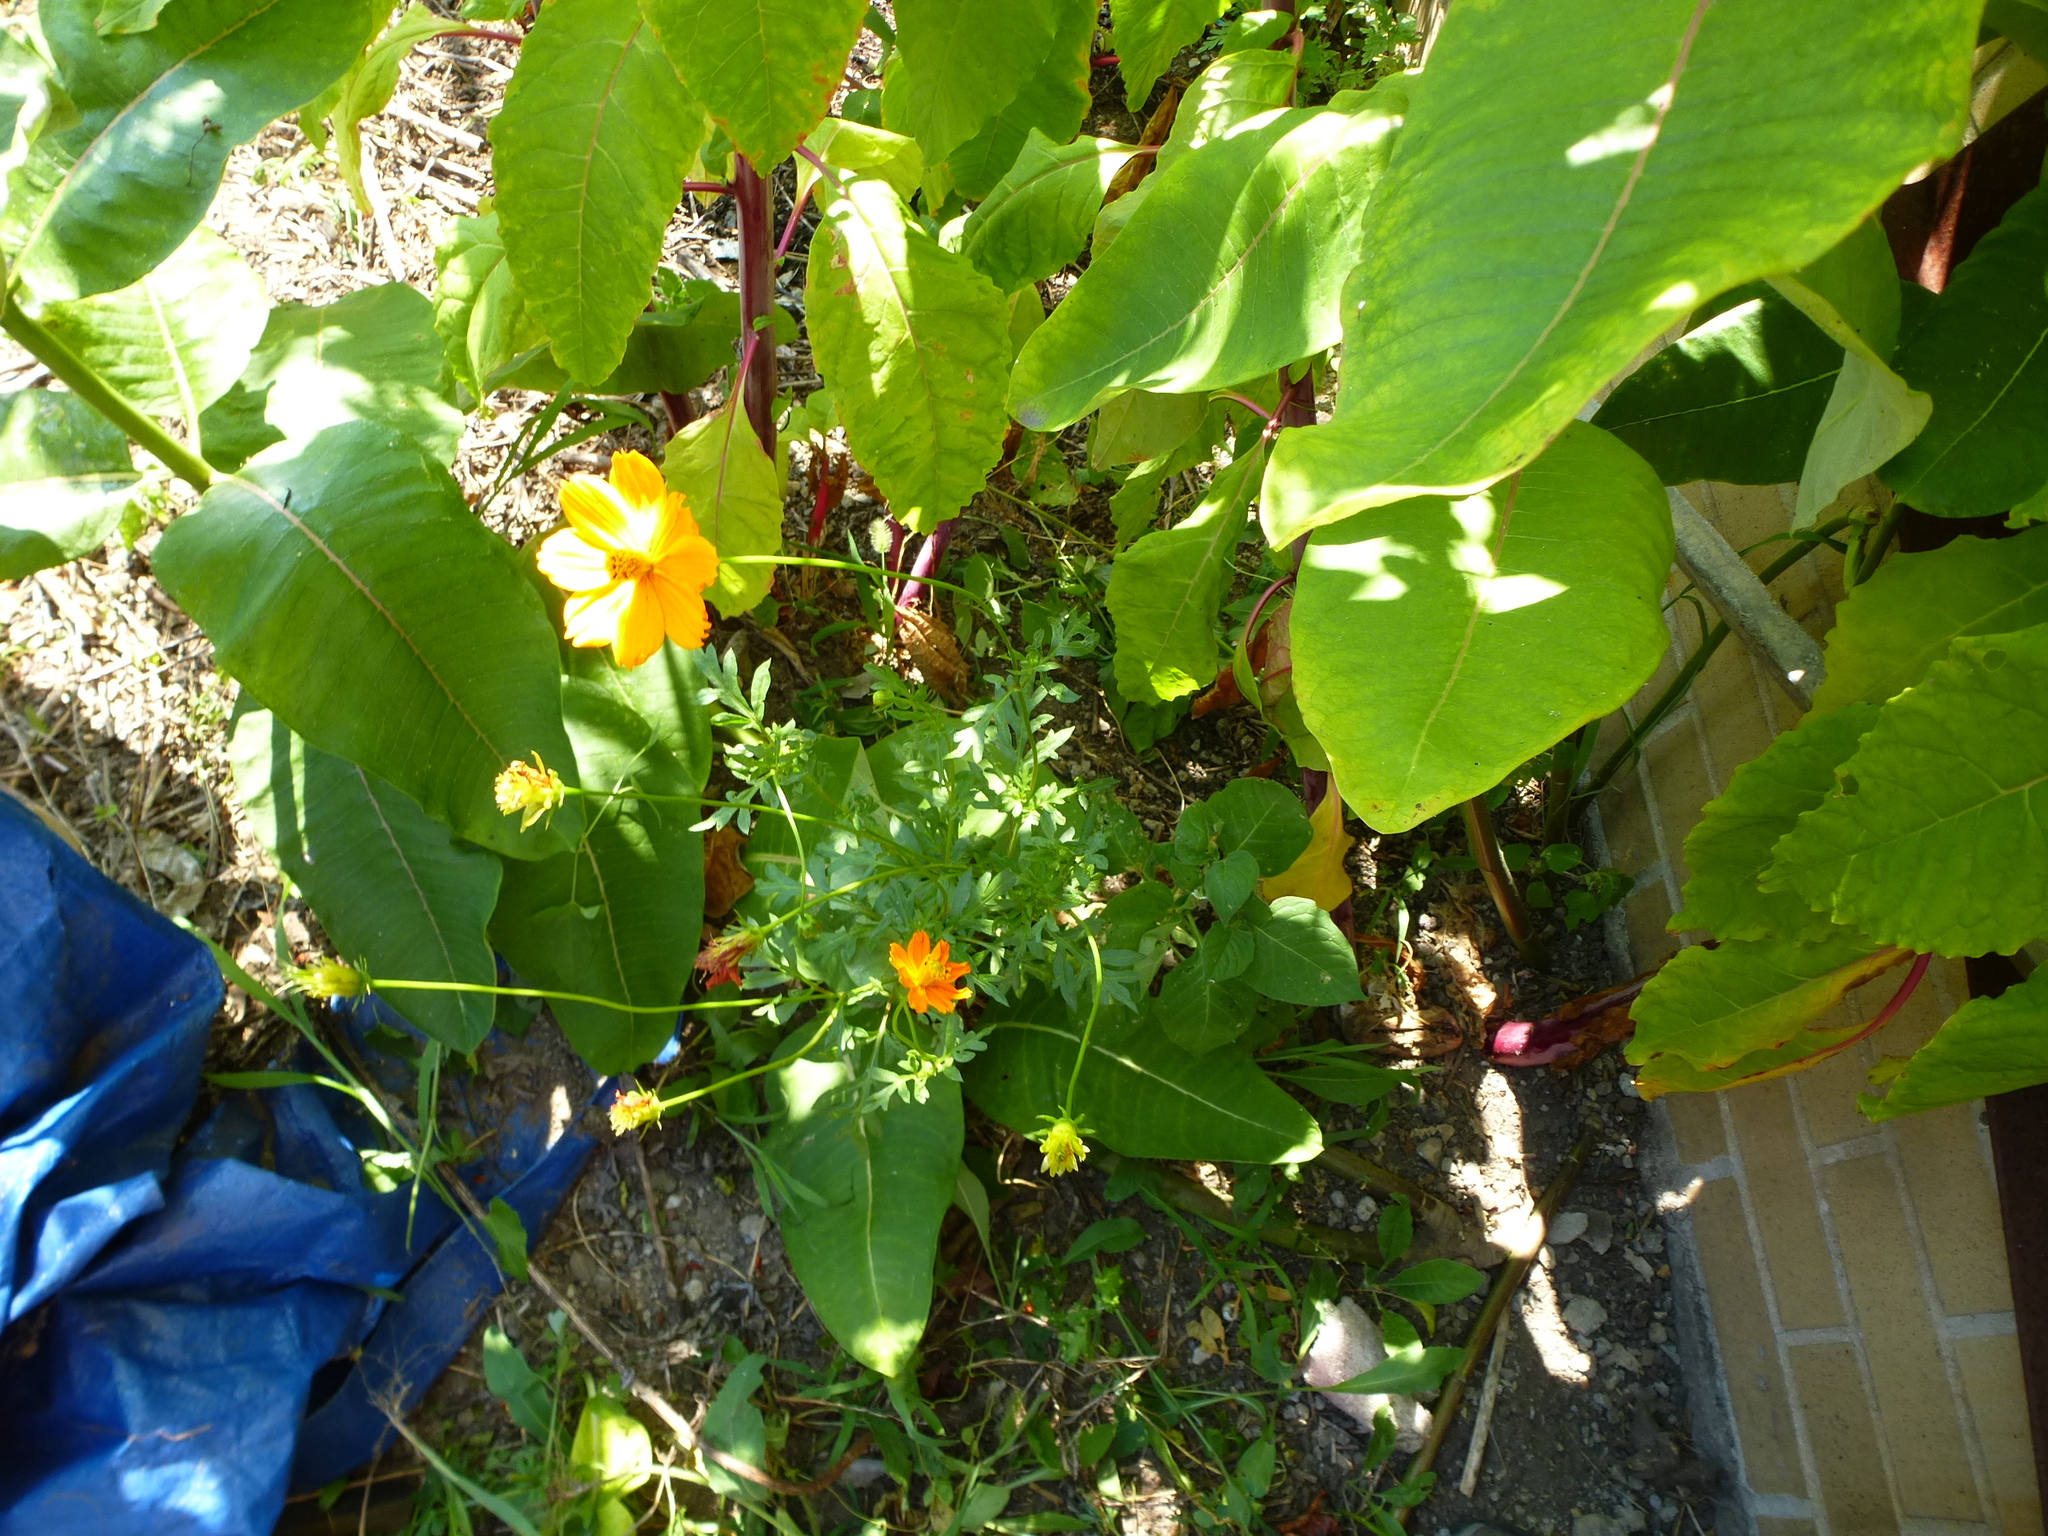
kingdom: Plantae
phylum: Tracheophyta
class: Magnoliopsida
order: Asterales
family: Asteraceae
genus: Cosmos
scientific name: Cosmos sulphureus
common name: Sulphur cosmos
